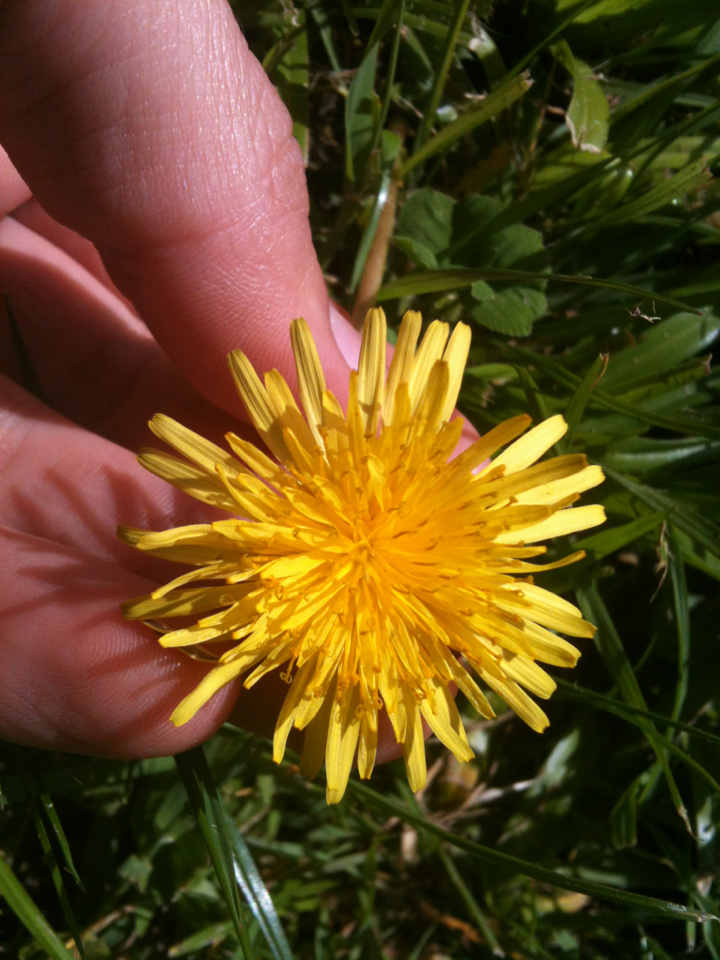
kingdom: Plantae
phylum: Tracheophyta
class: Magnoliopsida
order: Asterales
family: Asteraceae
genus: Taraxacum
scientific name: Taraxacum officinale
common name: Common dandelion
